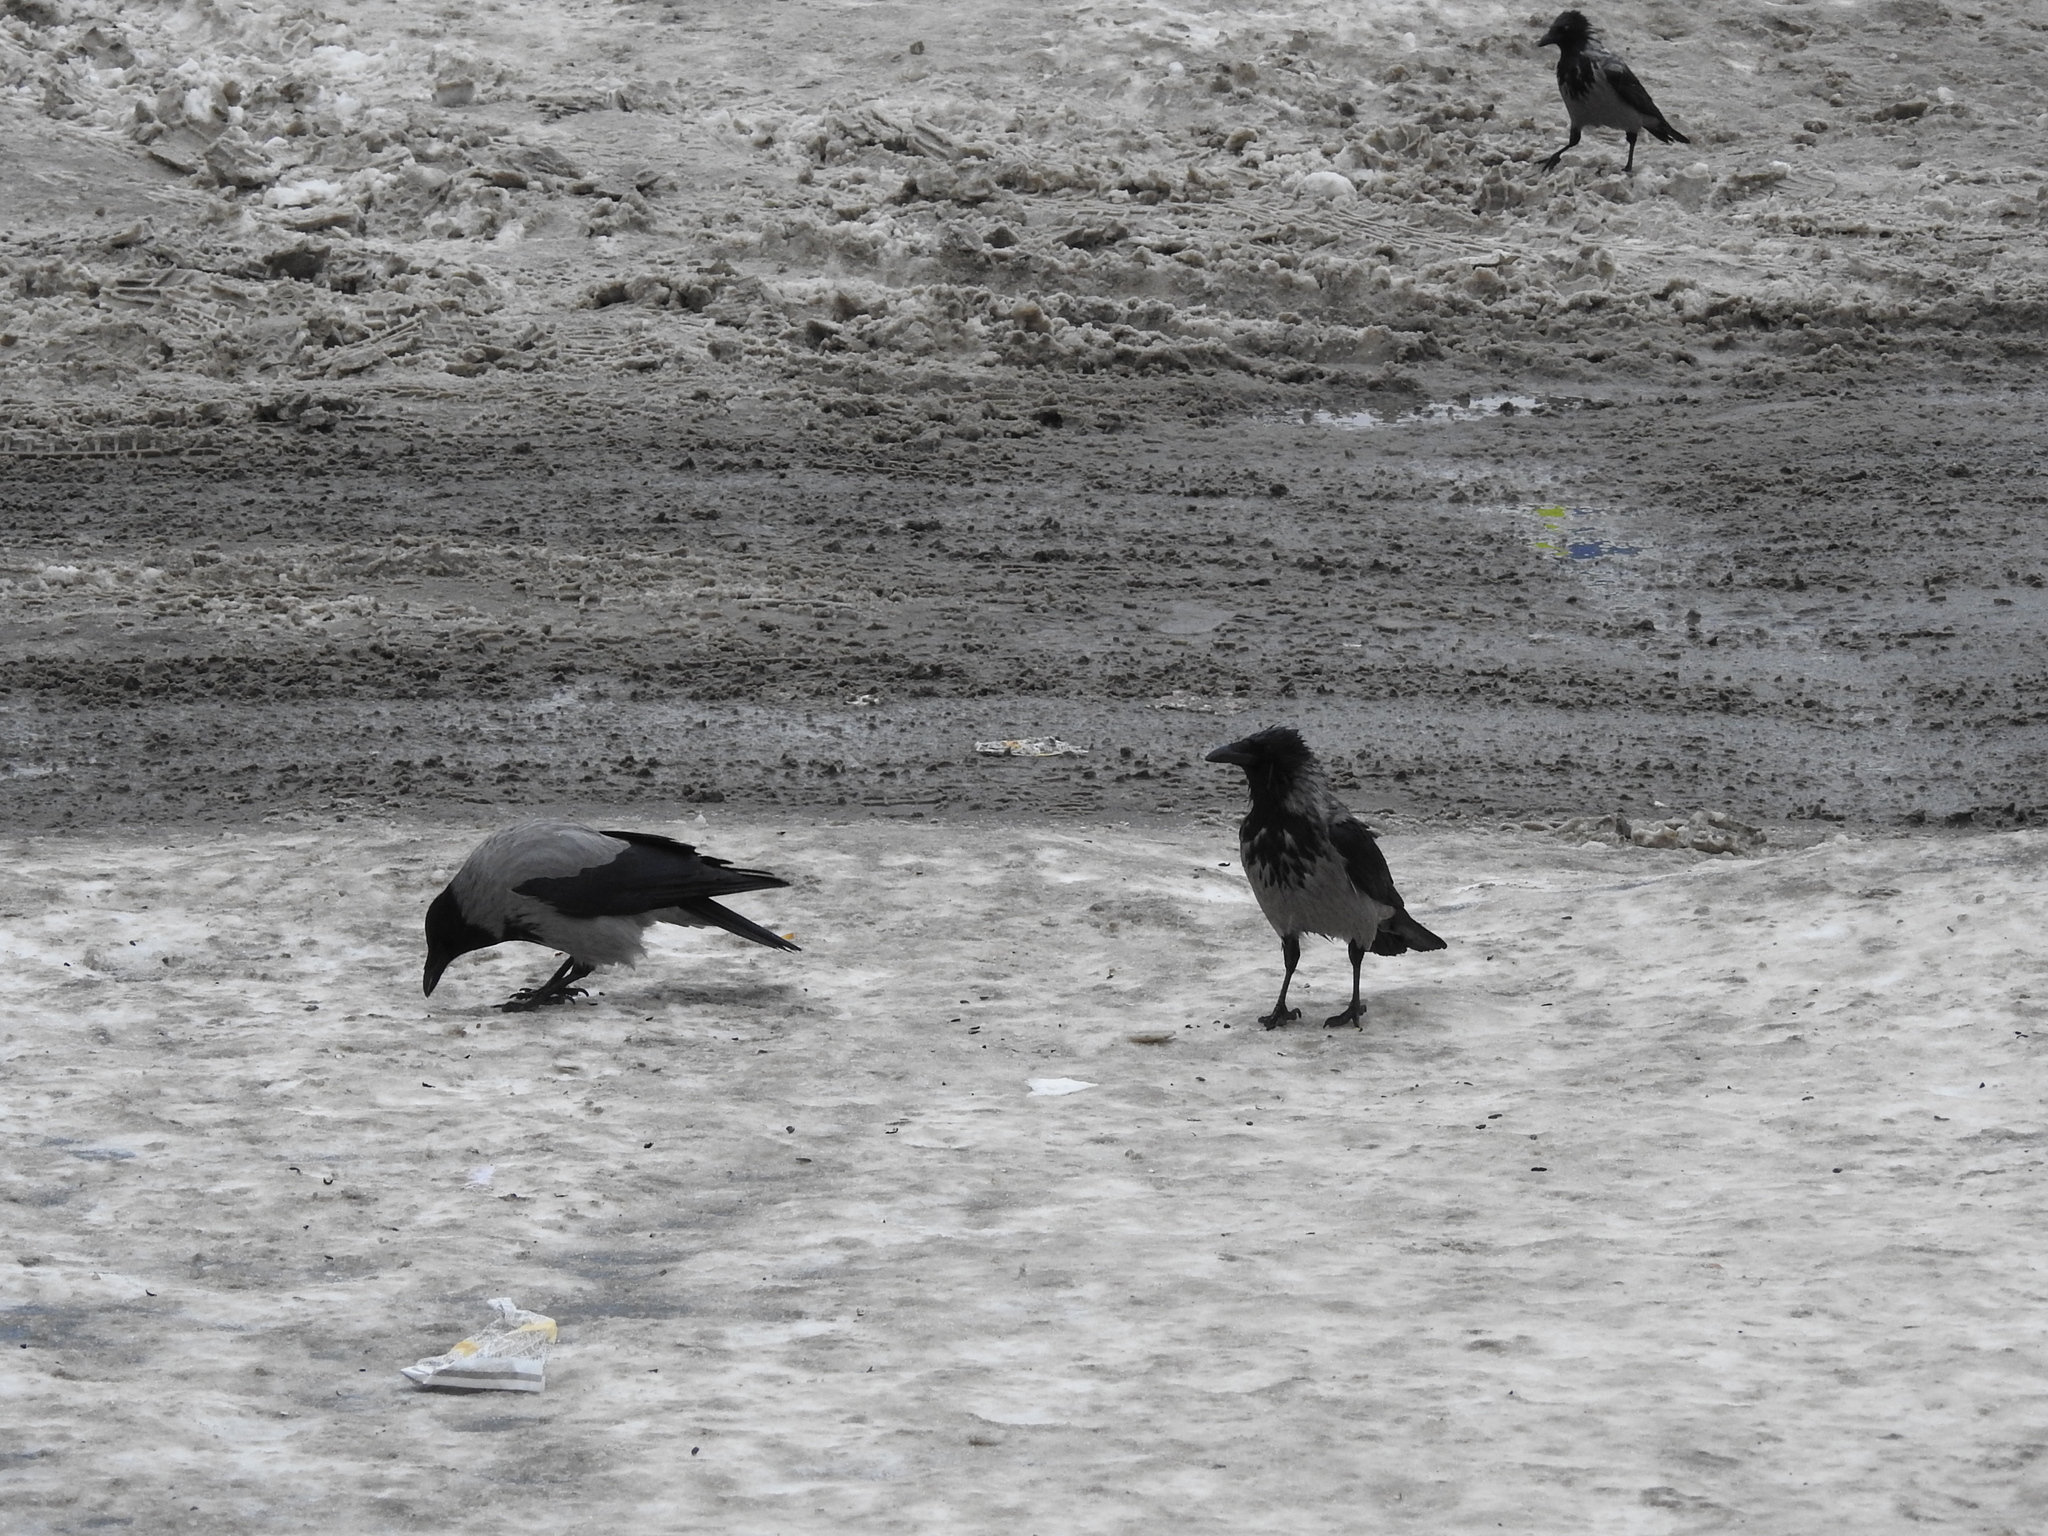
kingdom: Animalia
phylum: Chordata
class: Aves
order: Passeriformes
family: Corvidae
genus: Corvus
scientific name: Corvus cornix
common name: Hooded crow
